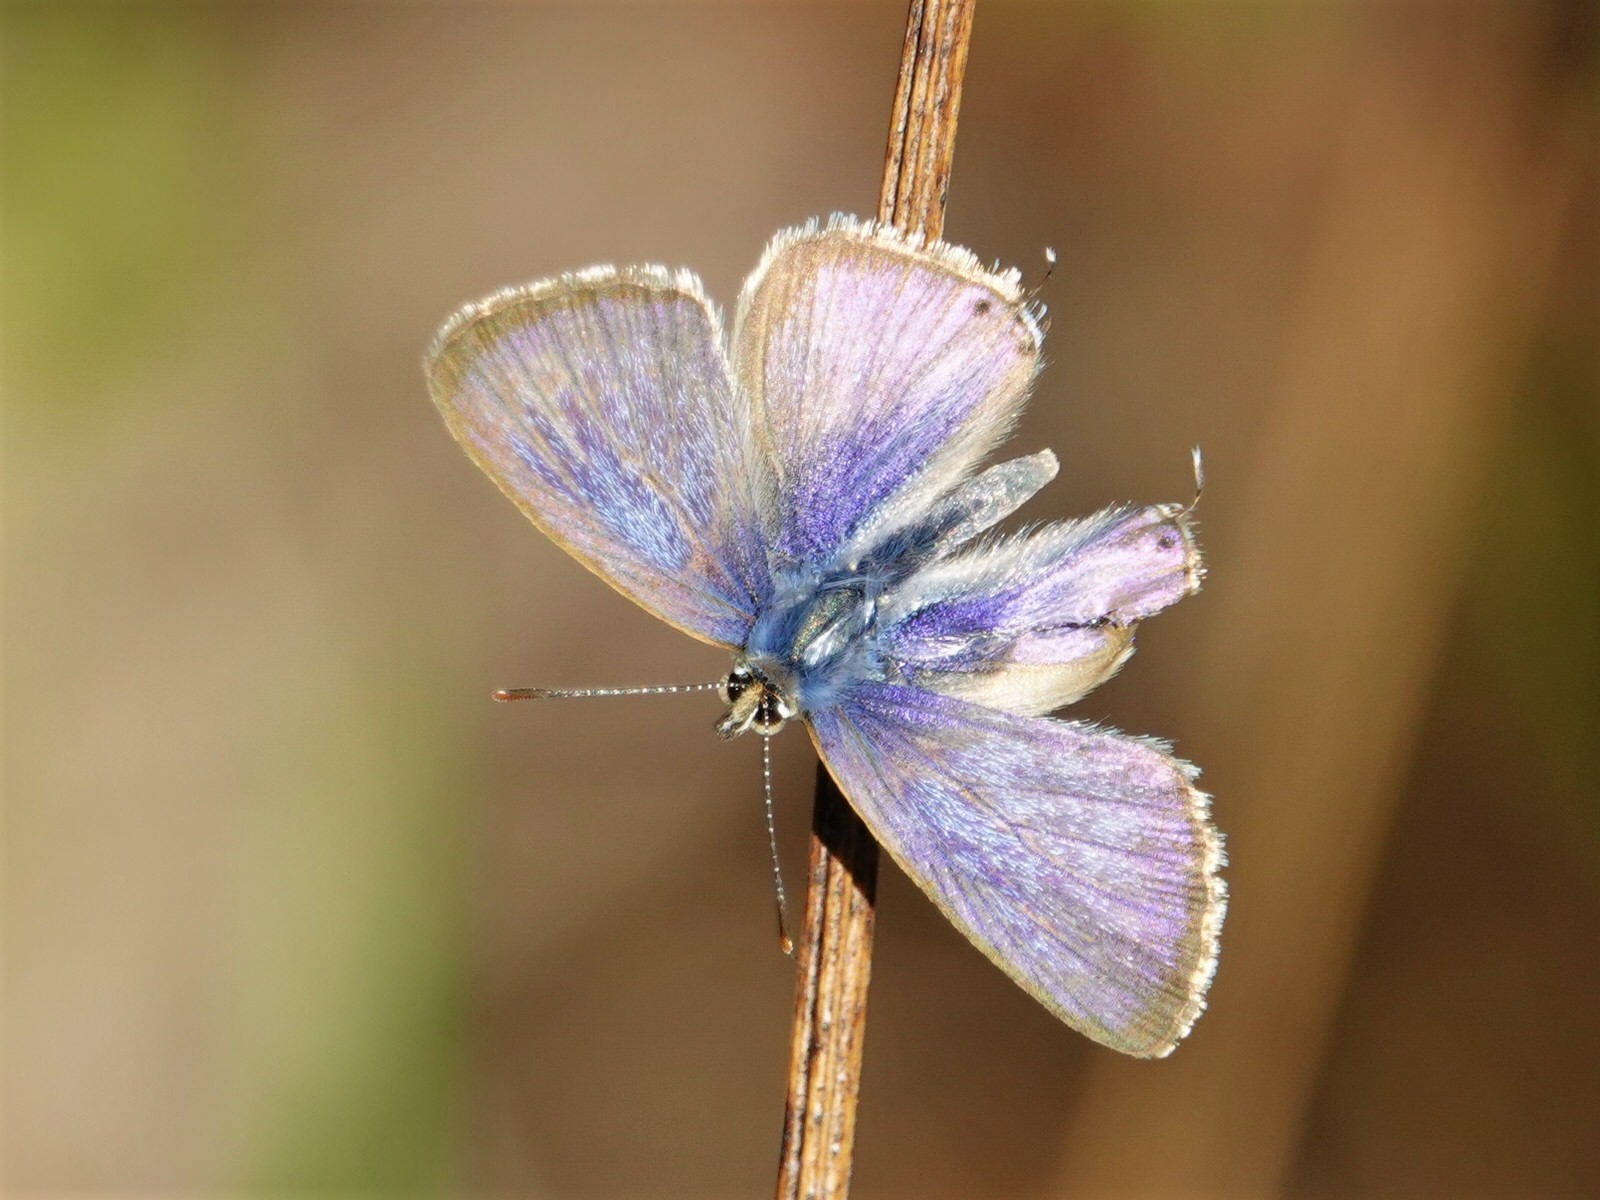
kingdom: Animalia
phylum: Arthropoda
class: Insecta
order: Lepidoptera
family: Lycaenidae
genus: Lampides
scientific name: Lampides boeticus
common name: Long-tailed blue
